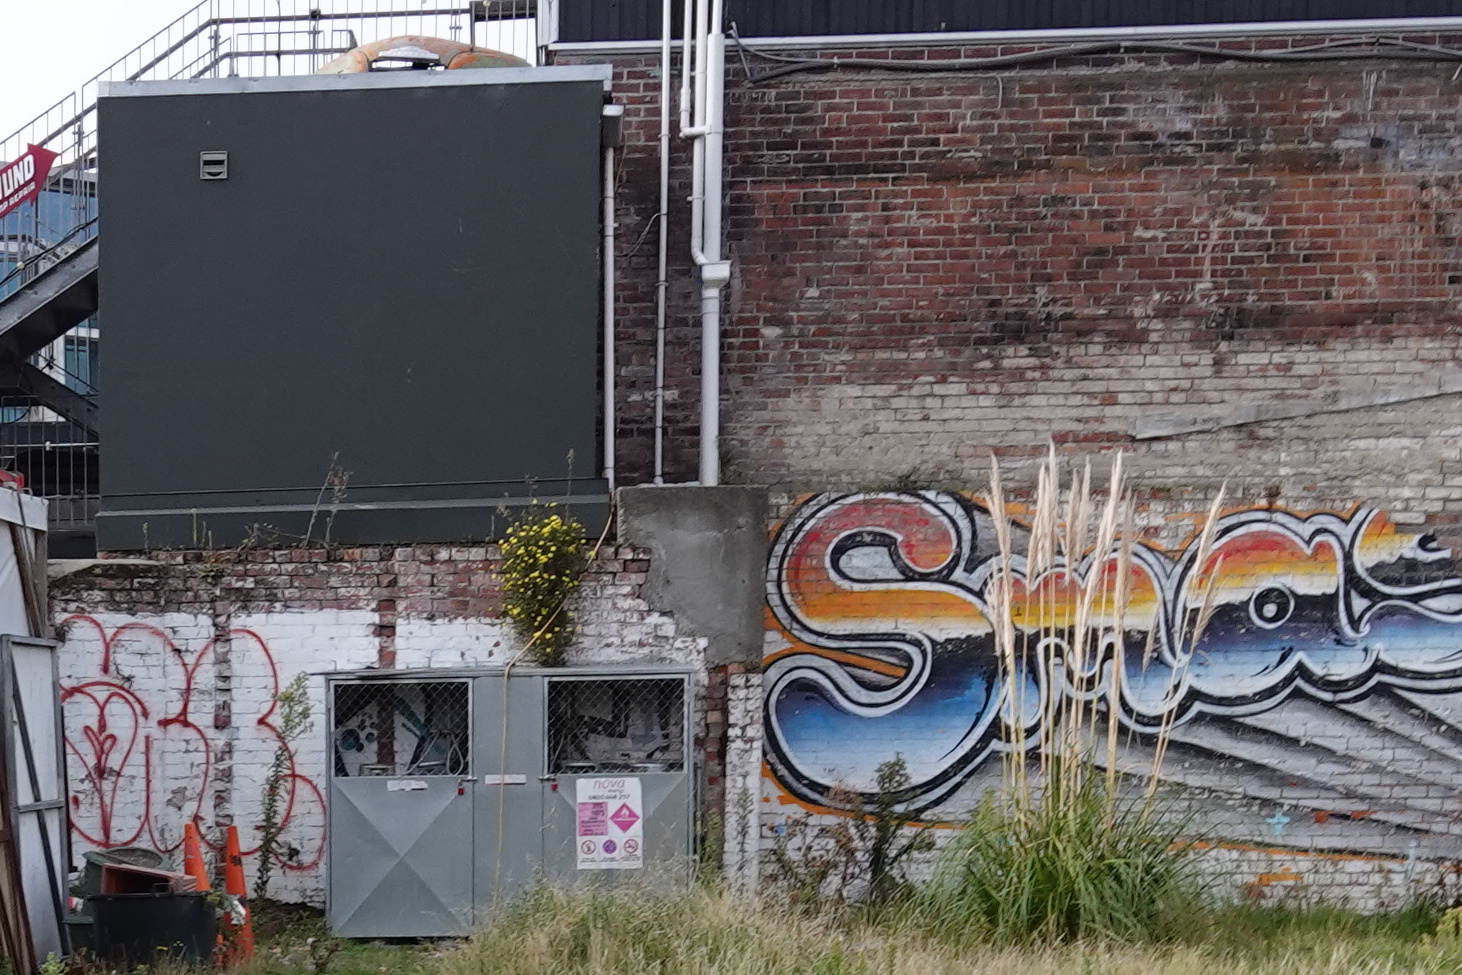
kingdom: Plantae
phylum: Tracheophyta
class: Magnoliopsida
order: Asterales
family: Asteraceae
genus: Senecio
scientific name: Senecio skirrhodon
